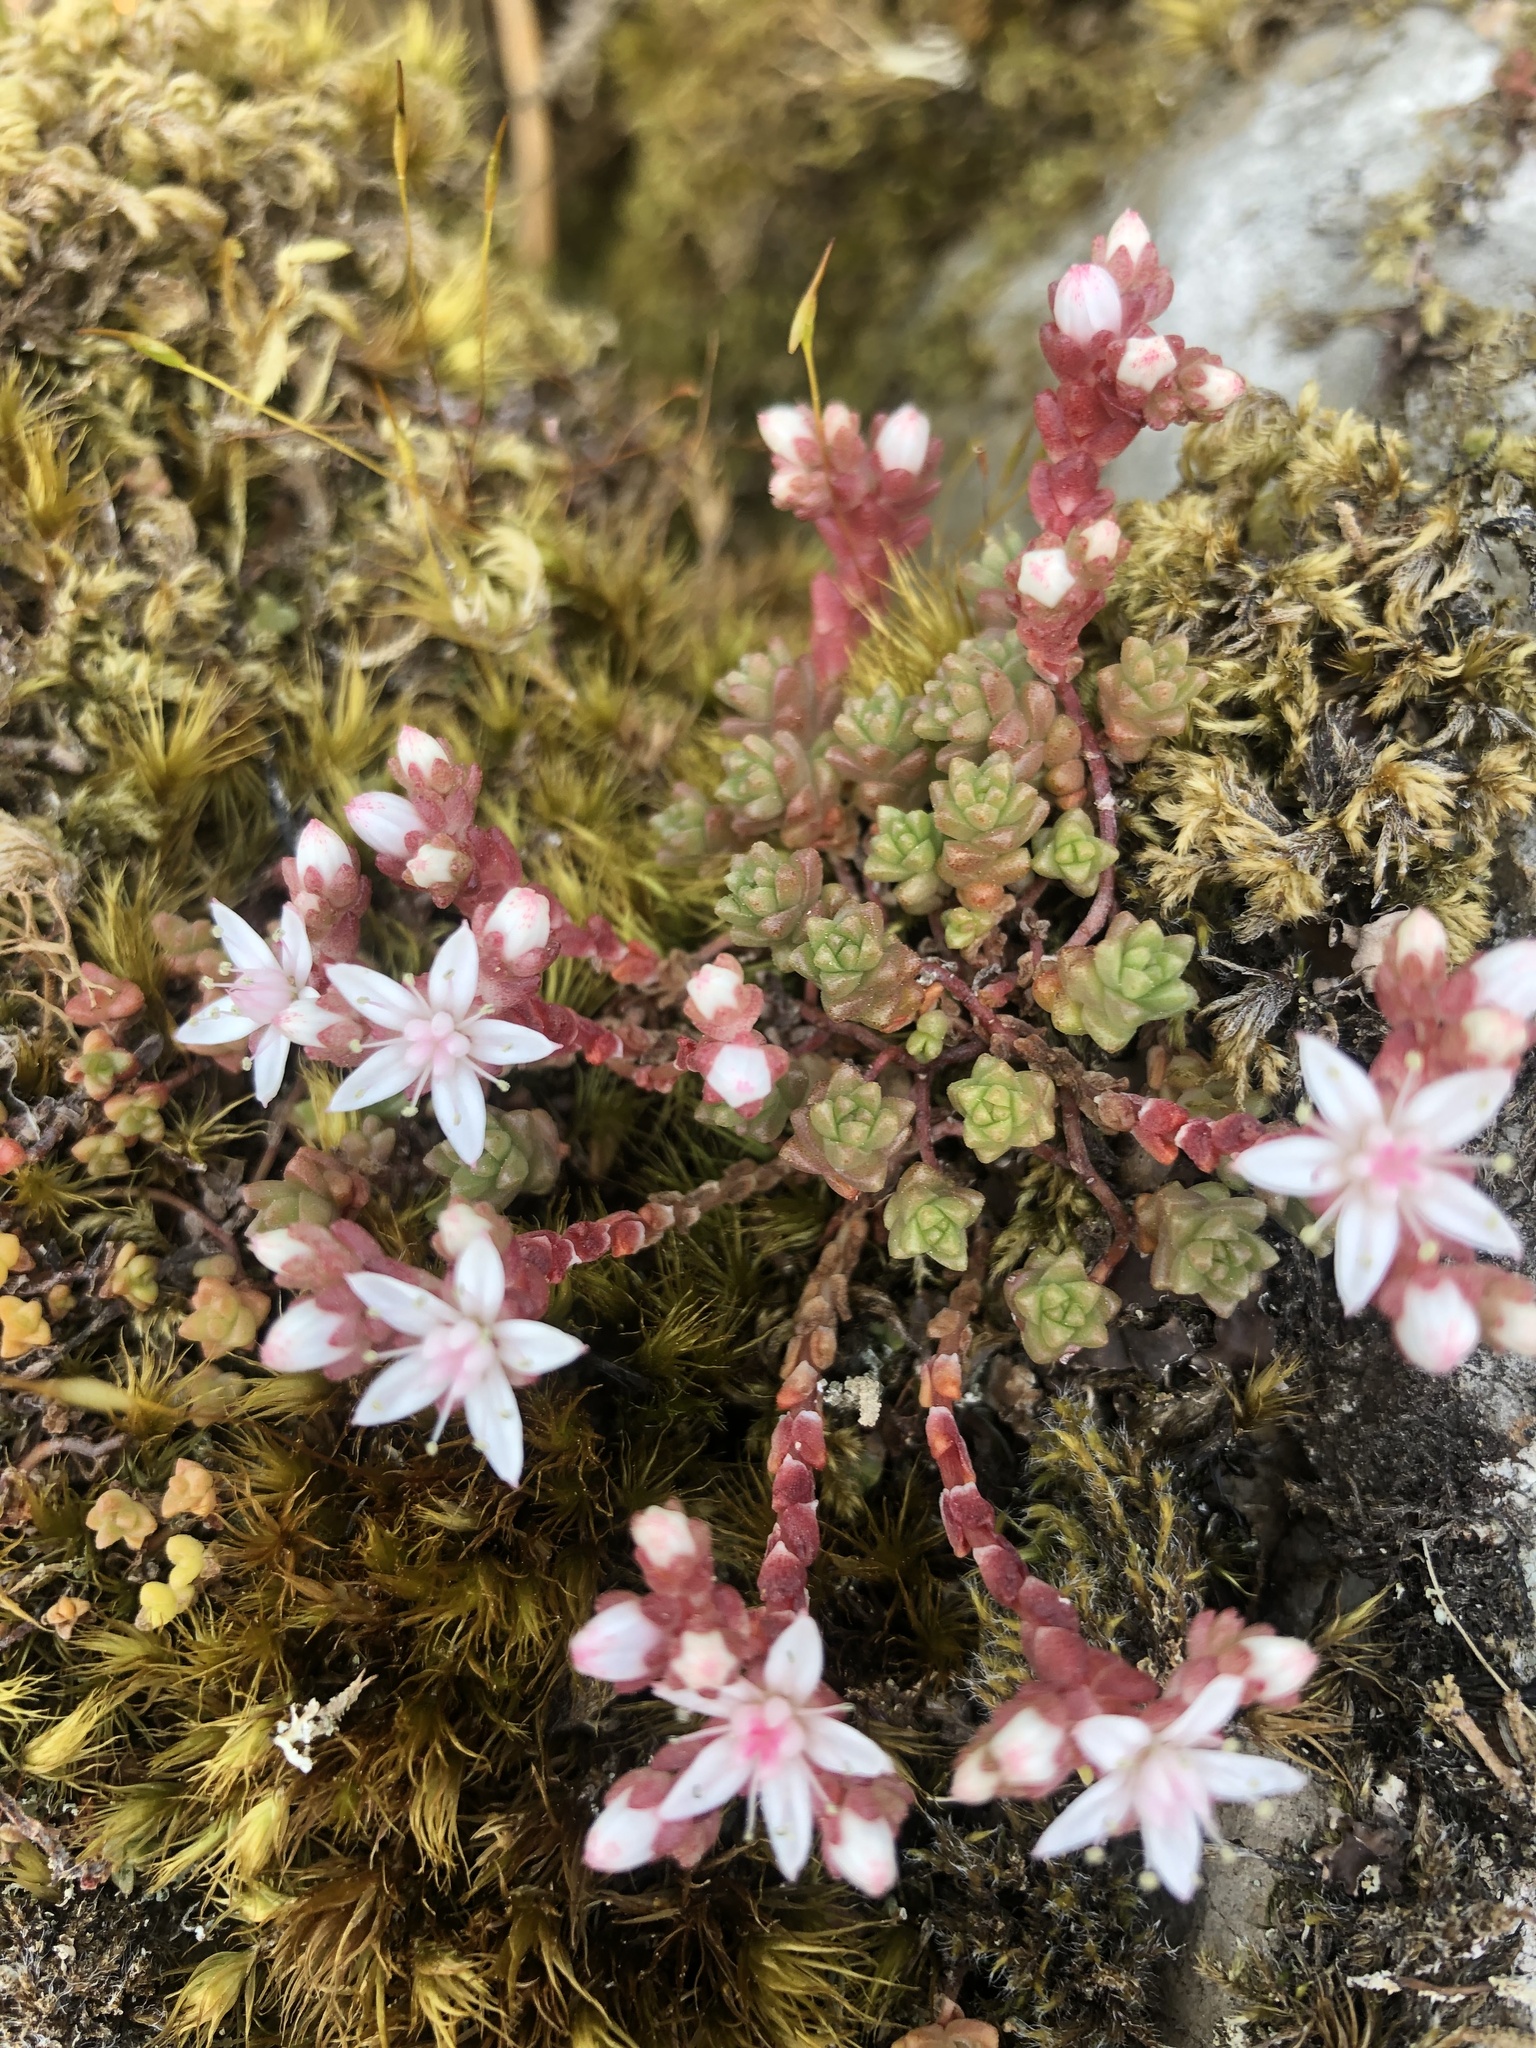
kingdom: Plantae
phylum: Tracheophyta
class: Magnoliopsida
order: Saxifragales
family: Crassulaceae
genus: Sedum
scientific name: Sedum anglicum
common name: English stonecrop
